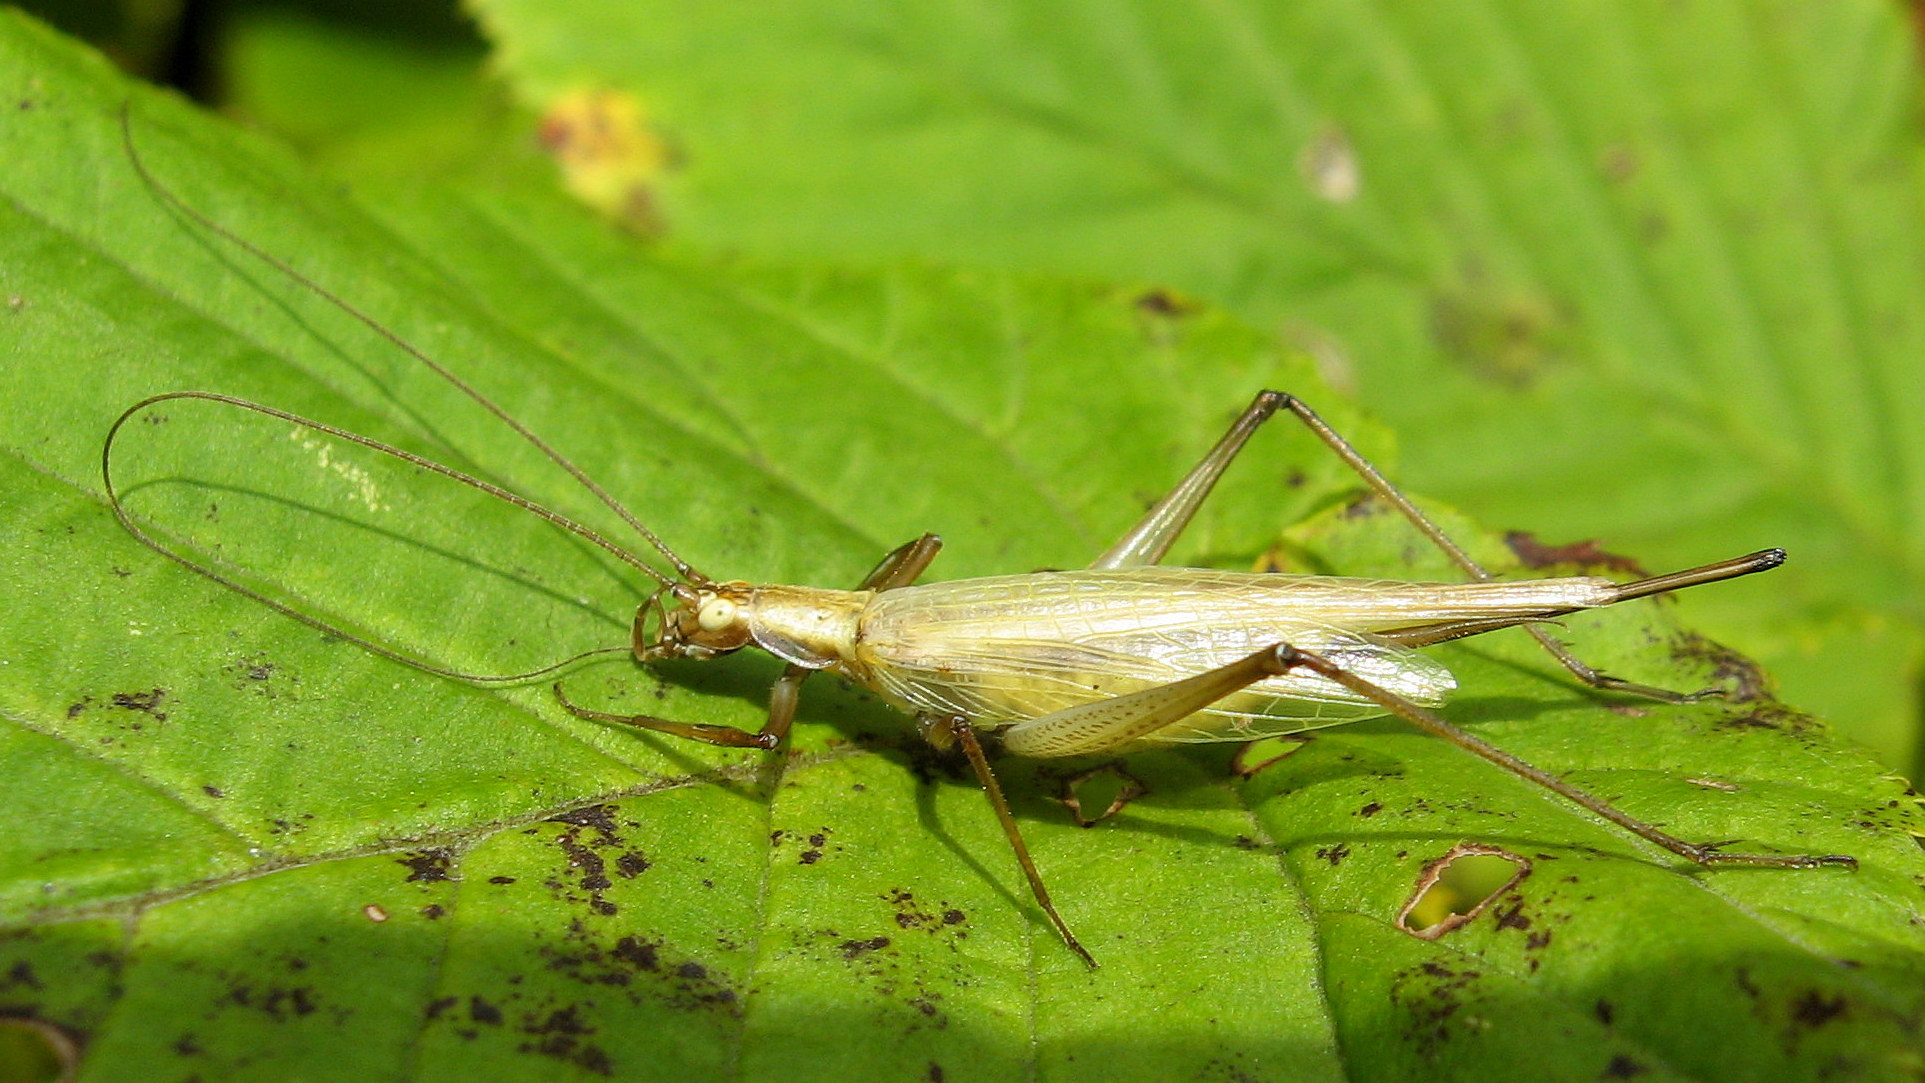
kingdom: Animalia
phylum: Arthropoda
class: Insecta
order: Orthoptera
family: Gryllidae
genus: Oecanthus
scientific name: Oecanthus longicauda
